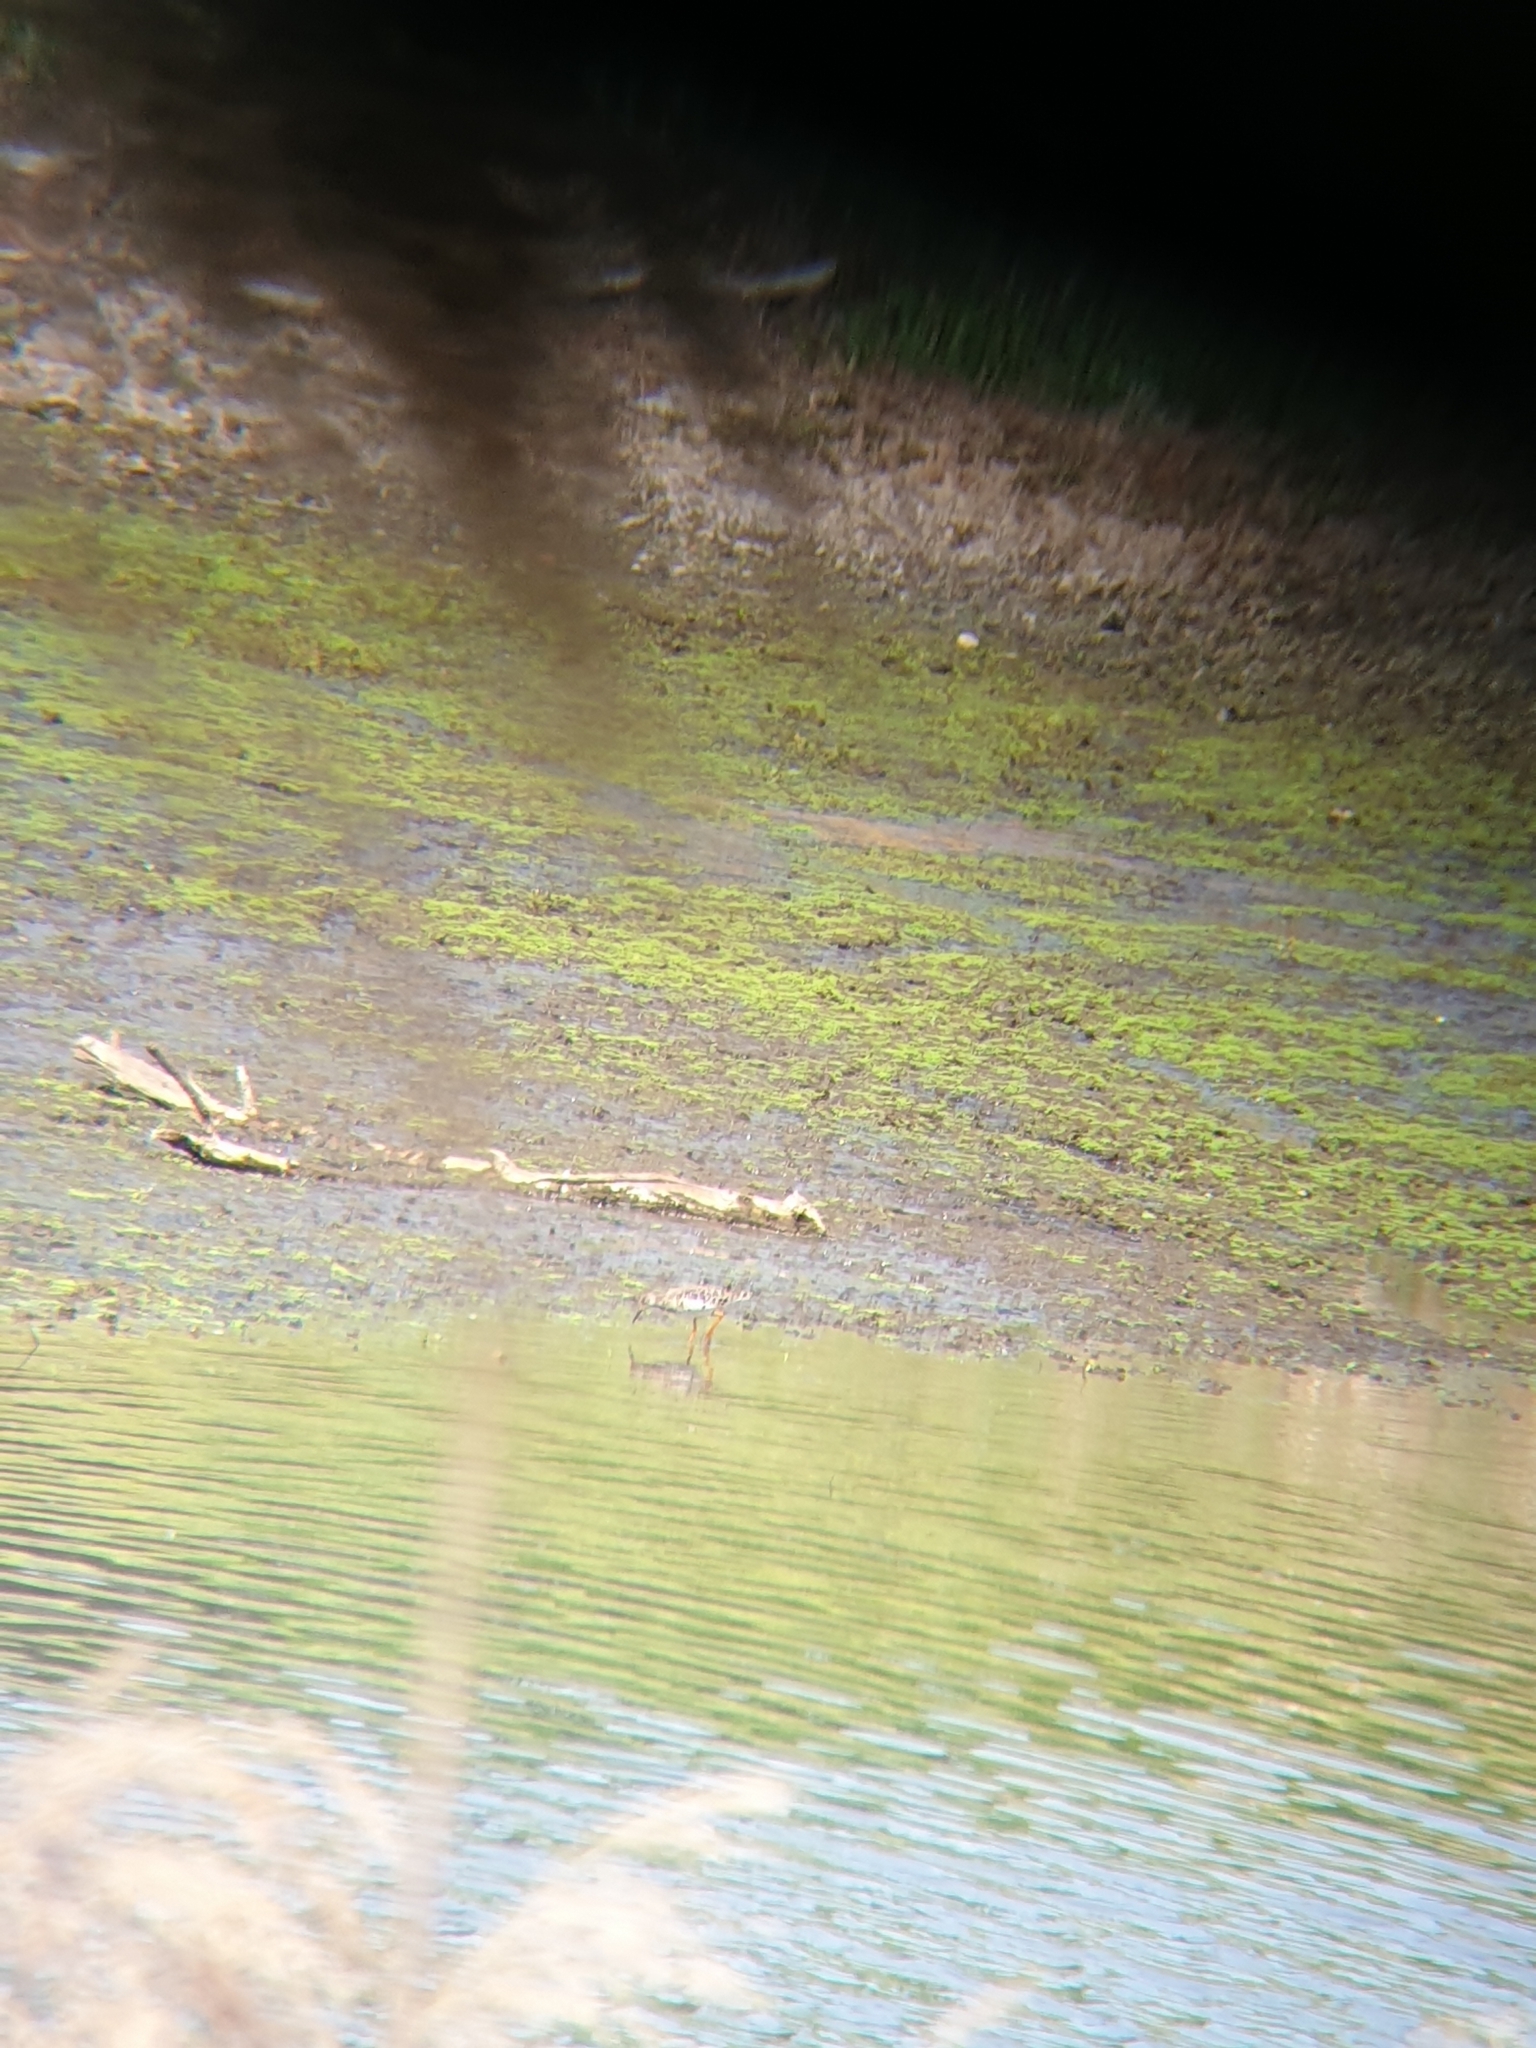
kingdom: Animalia
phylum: Chordata
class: Aves
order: Charadriiformes
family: Scolopacidae
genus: Calidris
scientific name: Calidris pugnax
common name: Ruff
